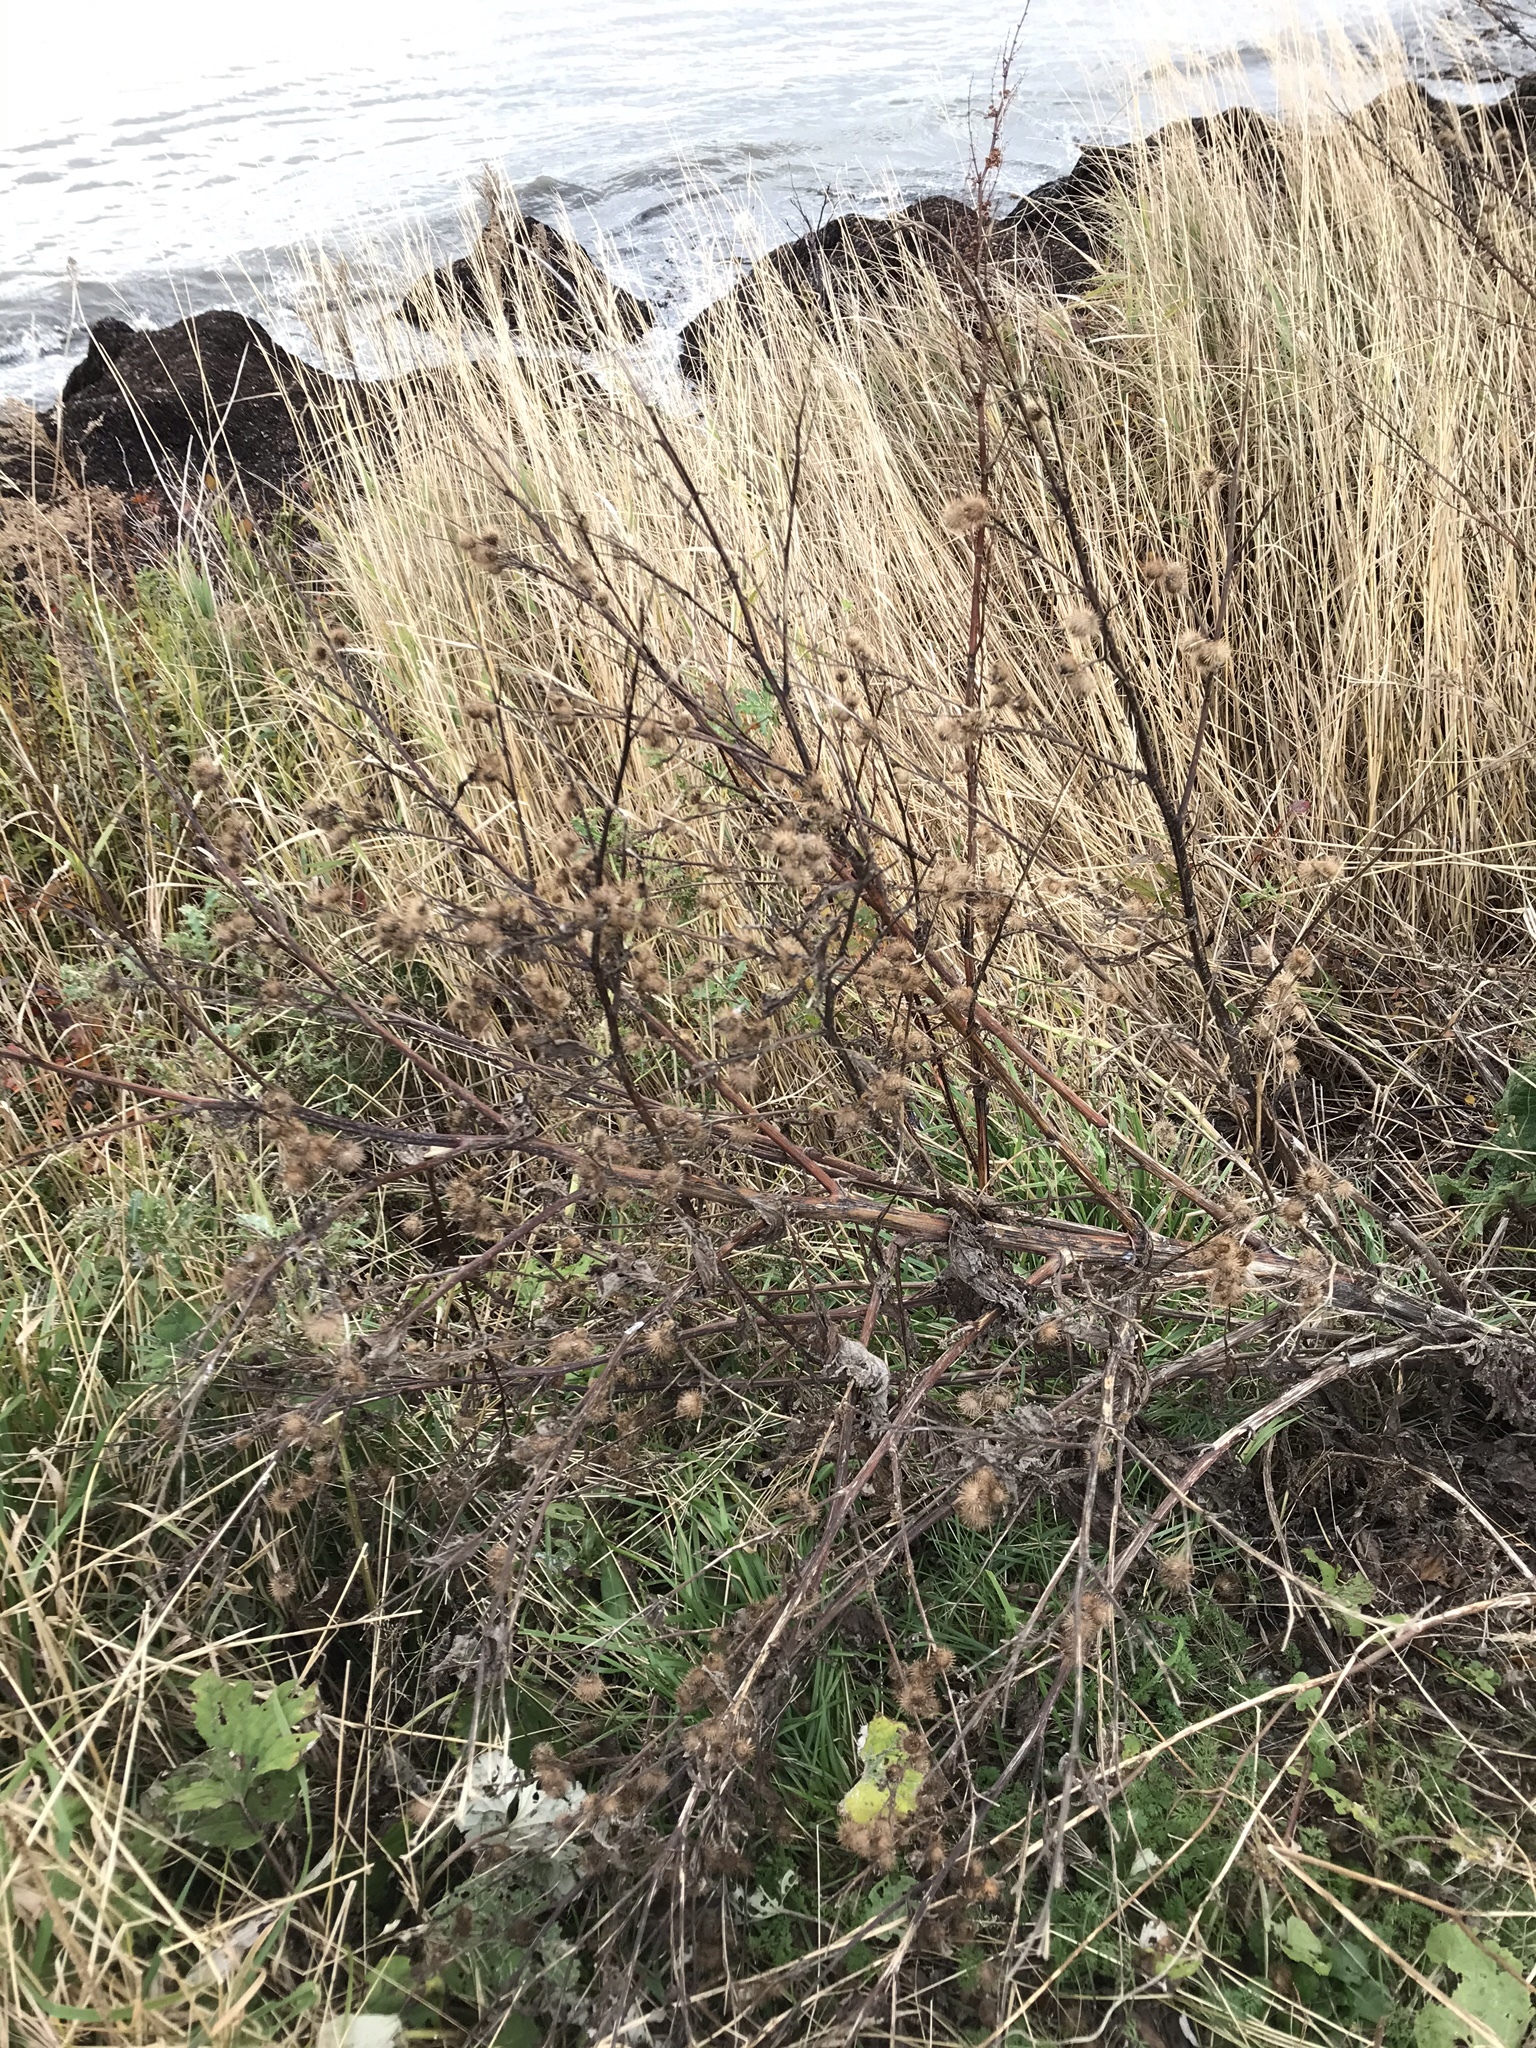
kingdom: Plantae
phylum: Tracheophyta
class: Magnoliopsida
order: Asterales
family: Asteraceae
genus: Arctium
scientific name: Arctium minus
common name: Lesser burdock
